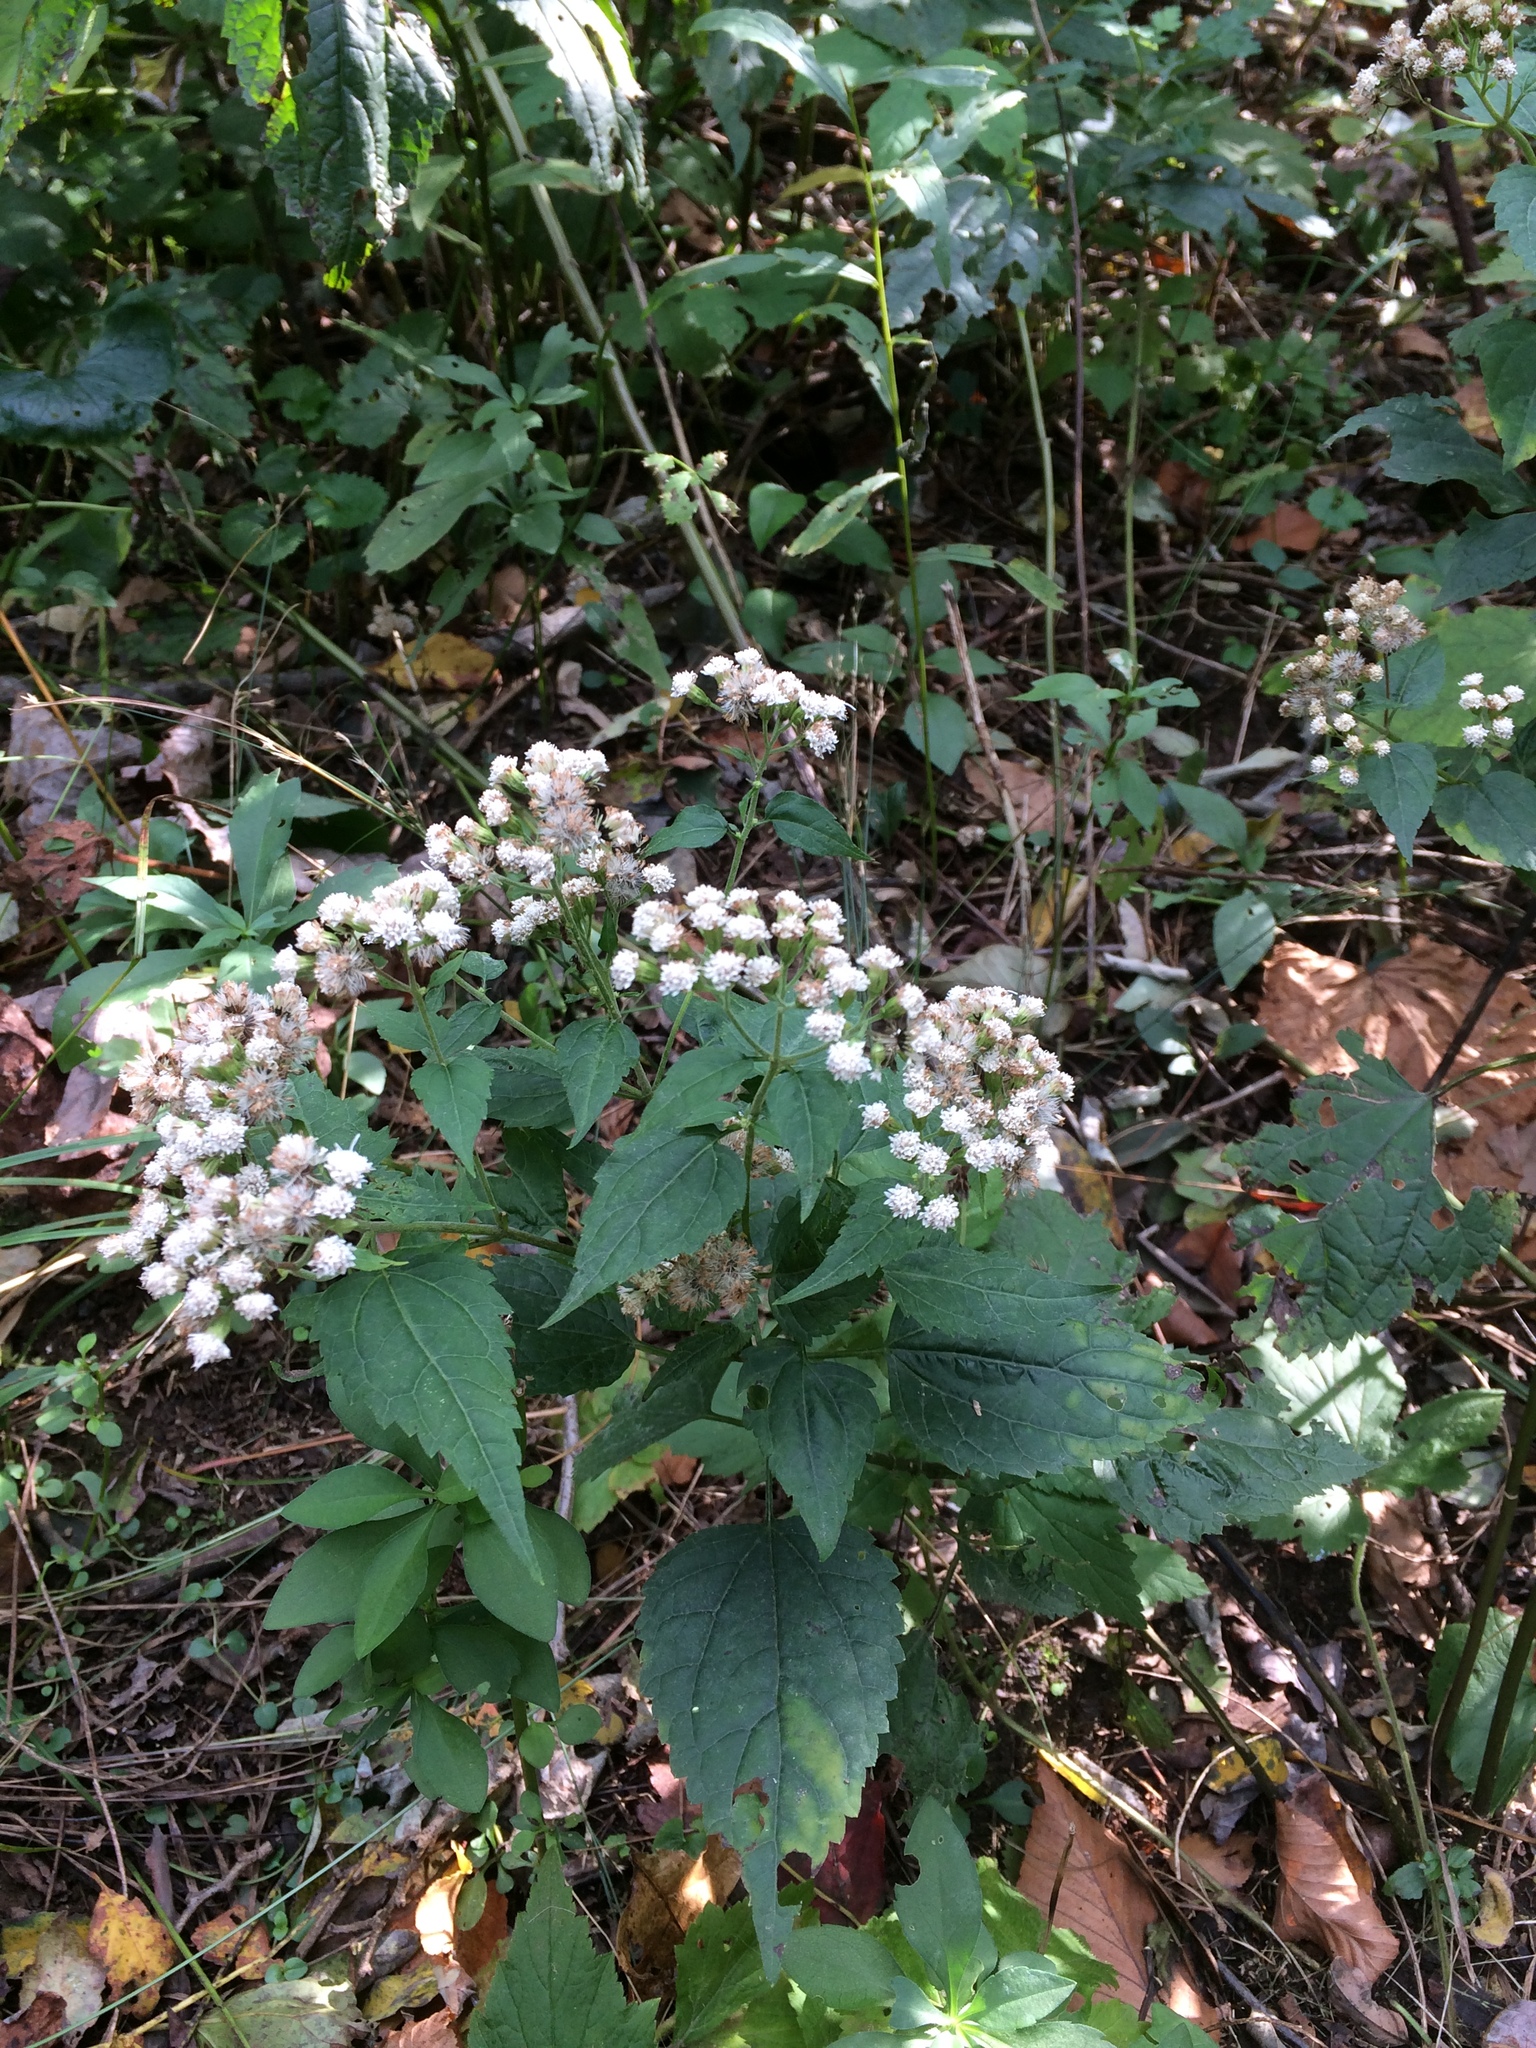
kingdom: Plantae
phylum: Tracheophyta
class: Magnoliopsida
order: Asterales
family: Asteraceae
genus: Ageratina
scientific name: Ageratina altissima
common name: White snakeroot
